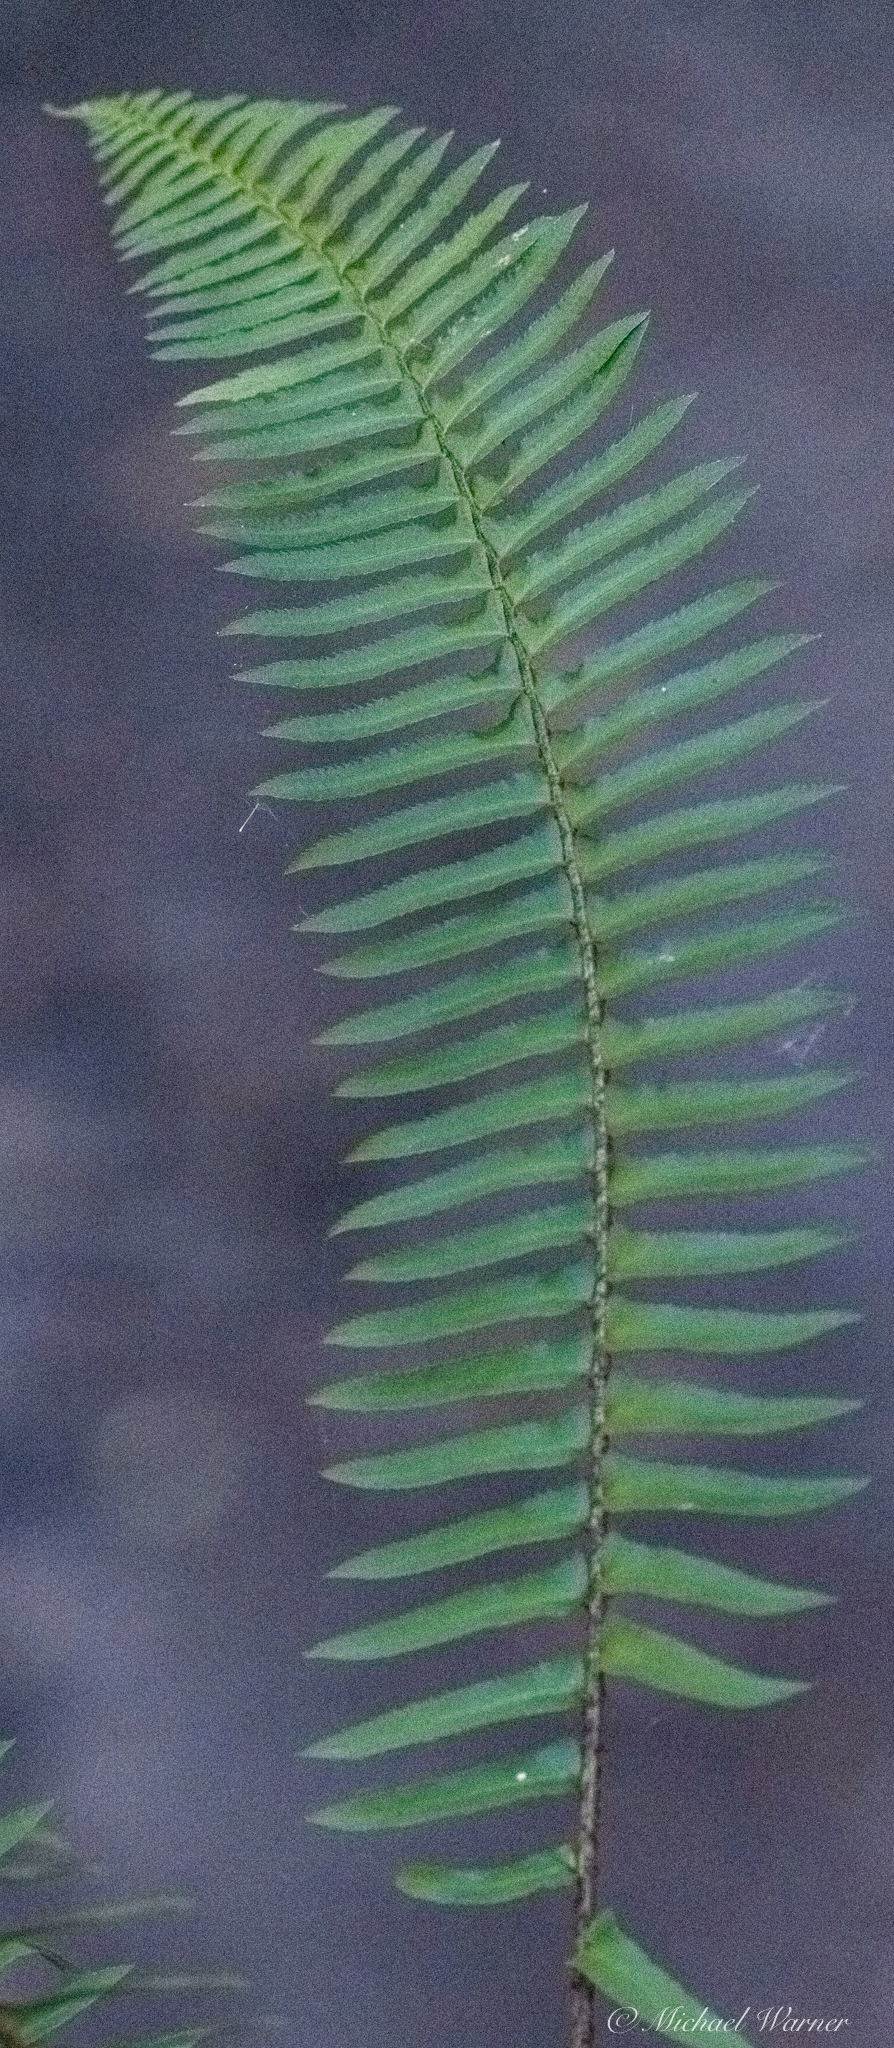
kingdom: Plantae
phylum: Tracheophyta
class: Polypodiopsida
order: Polypodiales
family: Dryopteridaceae
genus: Polystichum
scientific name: Polystichum munitum
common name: Western sword-fern
